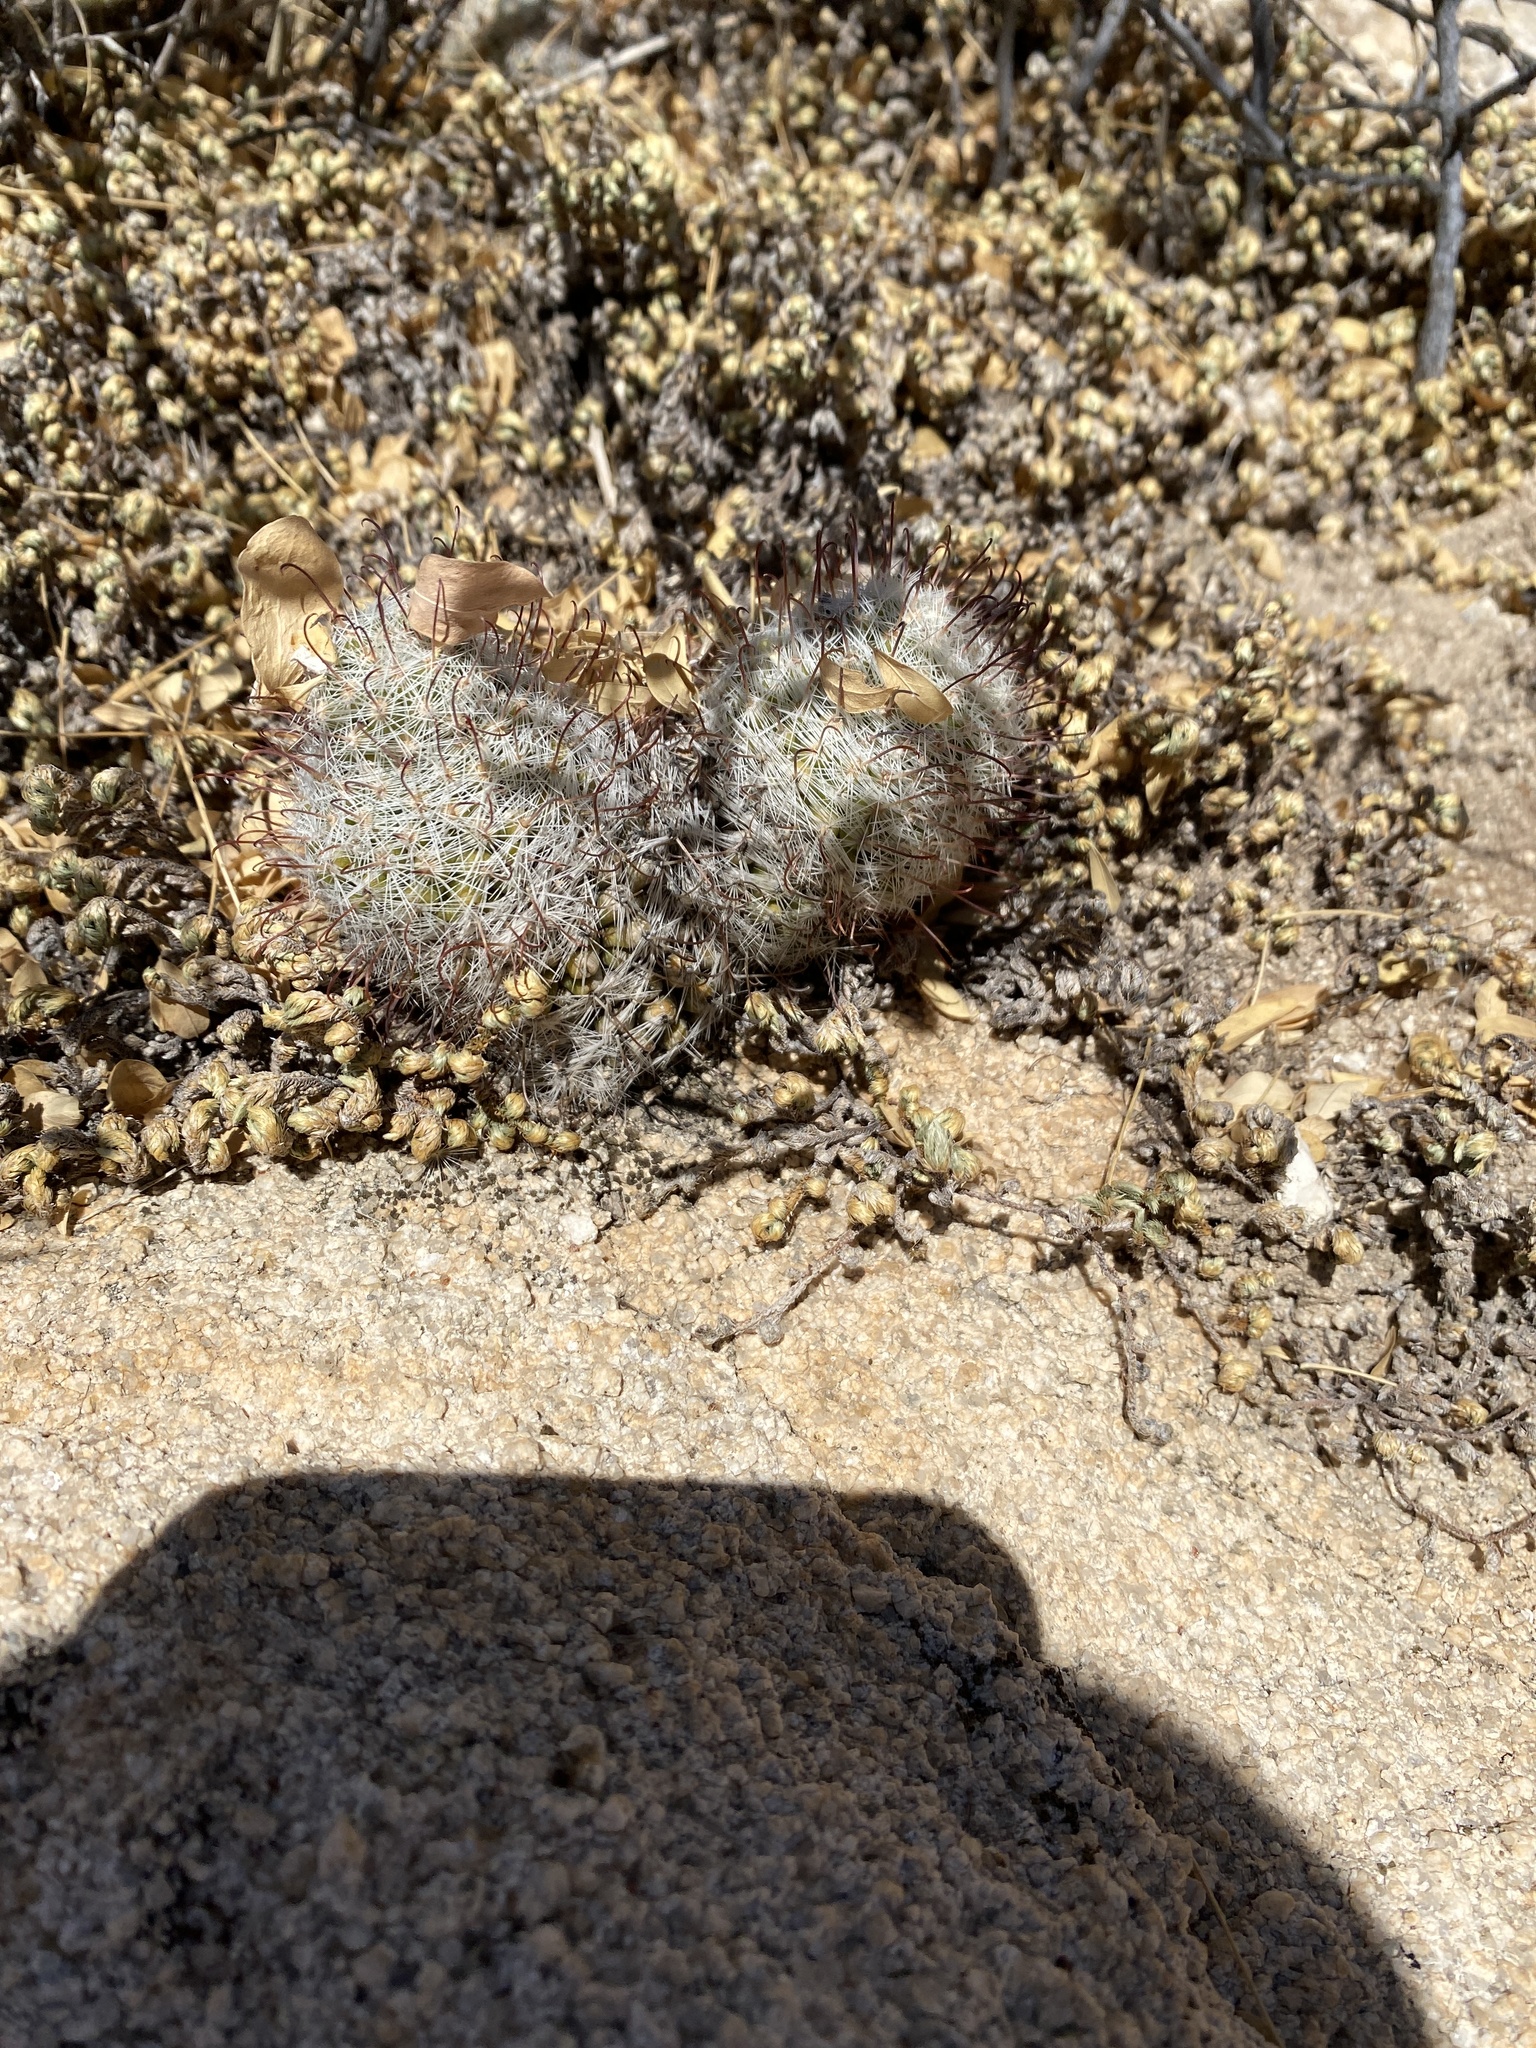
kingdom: Plantae
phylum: Tracheophyta
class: Magnoliopsida
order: Caryophyllales
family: Cactaceae
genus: Cochemiea
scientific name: Cochemiea grahamii
